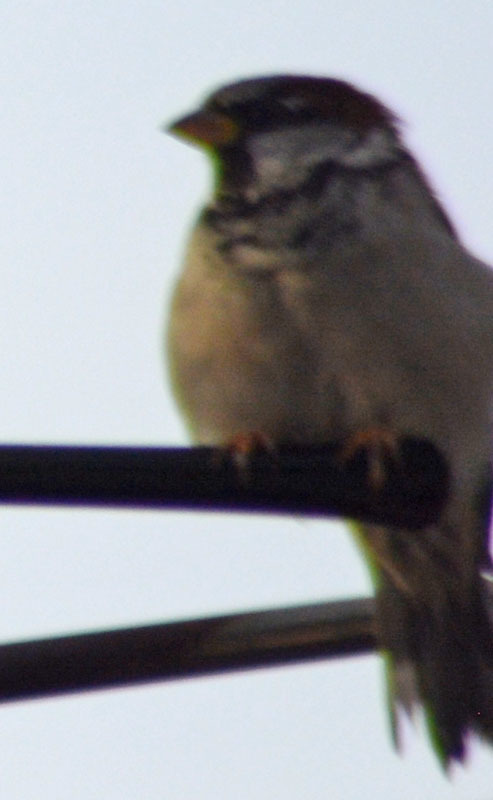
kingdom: Animalia
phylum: Chordata
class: Aves
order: Passeriformes
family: Passeridae
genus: Passer
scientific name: Passer domesticus
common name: House sparrow
